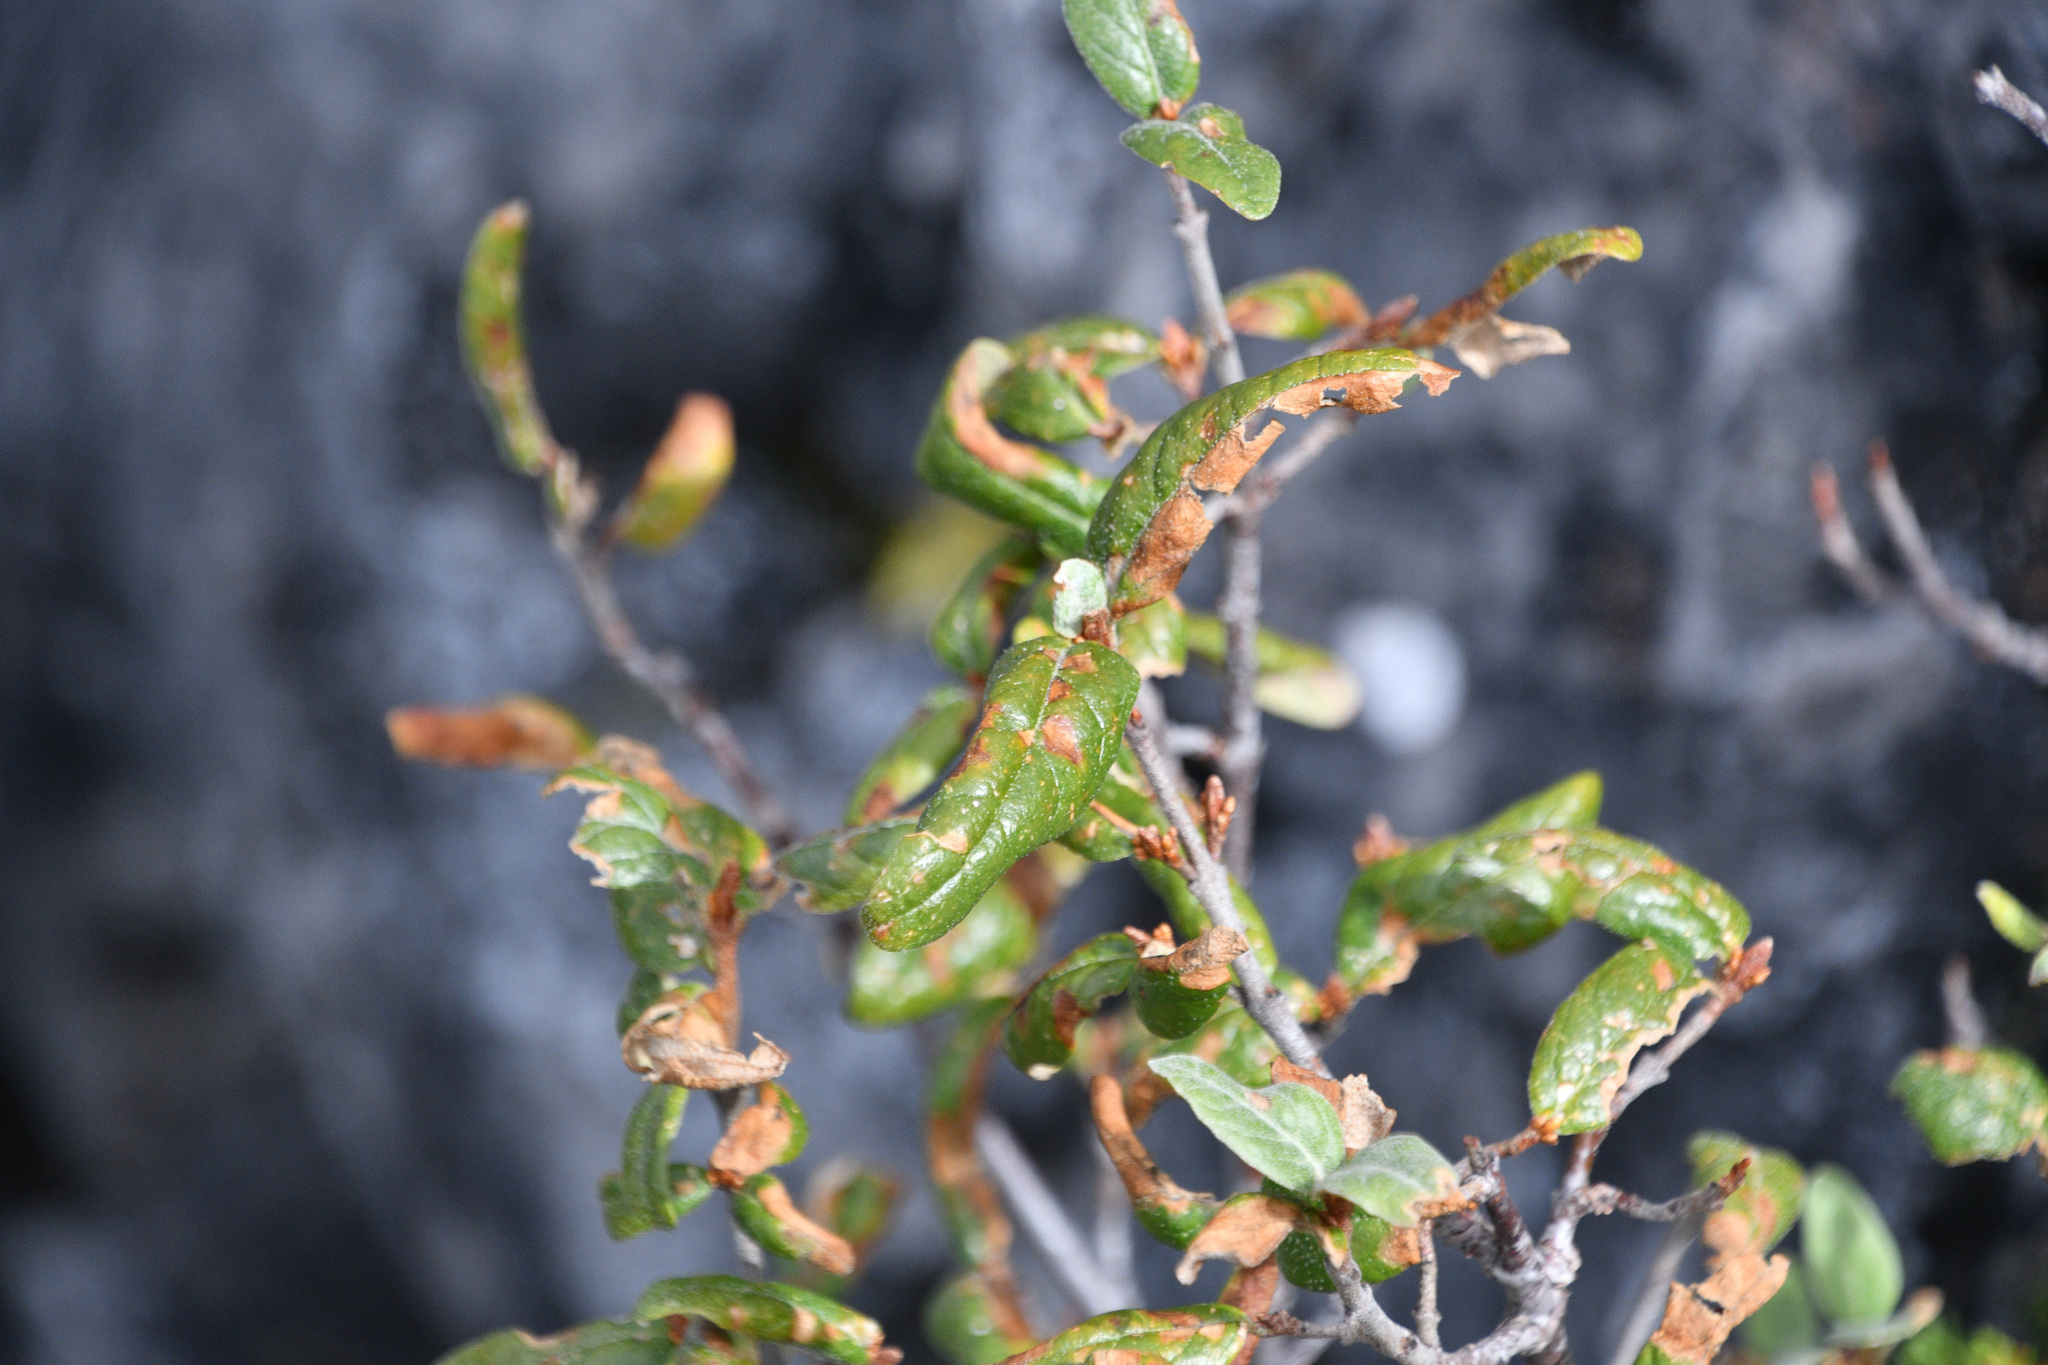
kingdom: Plantae
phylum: Tracheophyta
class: Magnoliopsida
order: Rosales
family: Elaeagnaceae
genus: Shepherdia
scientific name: Shepherdia canadensis
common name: Soapberry
